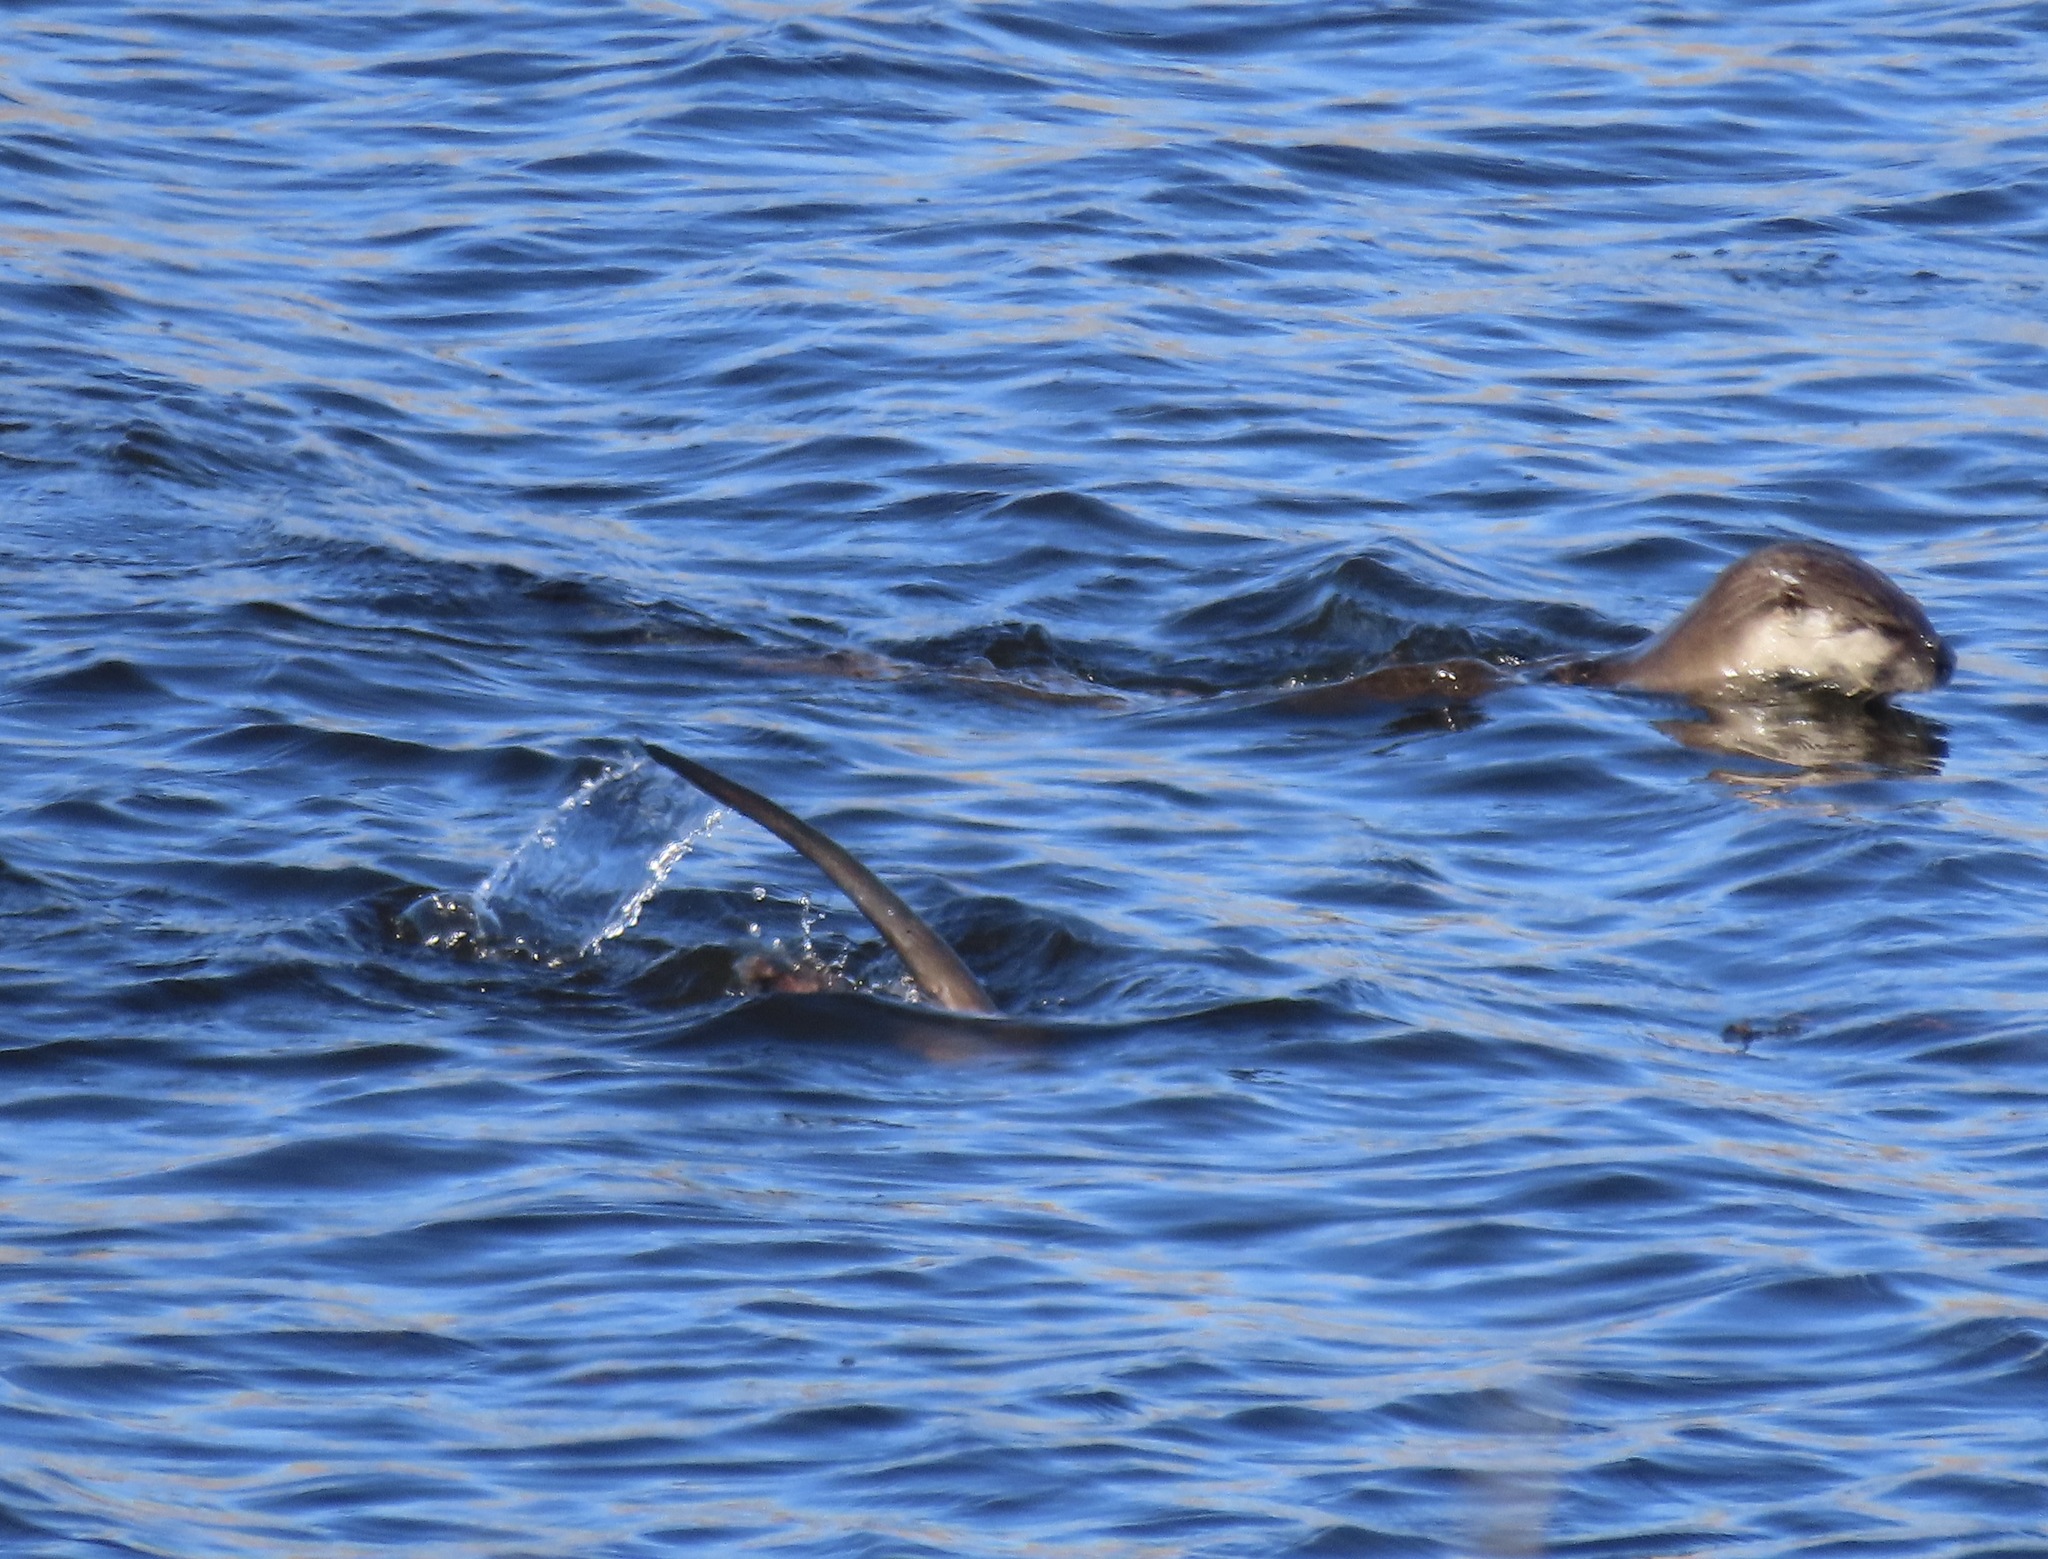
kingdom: Animalia
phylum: Chordata
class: Mammalia
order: Carnivora
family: Mustelidae
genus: Lontra
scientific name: Lontra canadensis
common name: North american river otter
